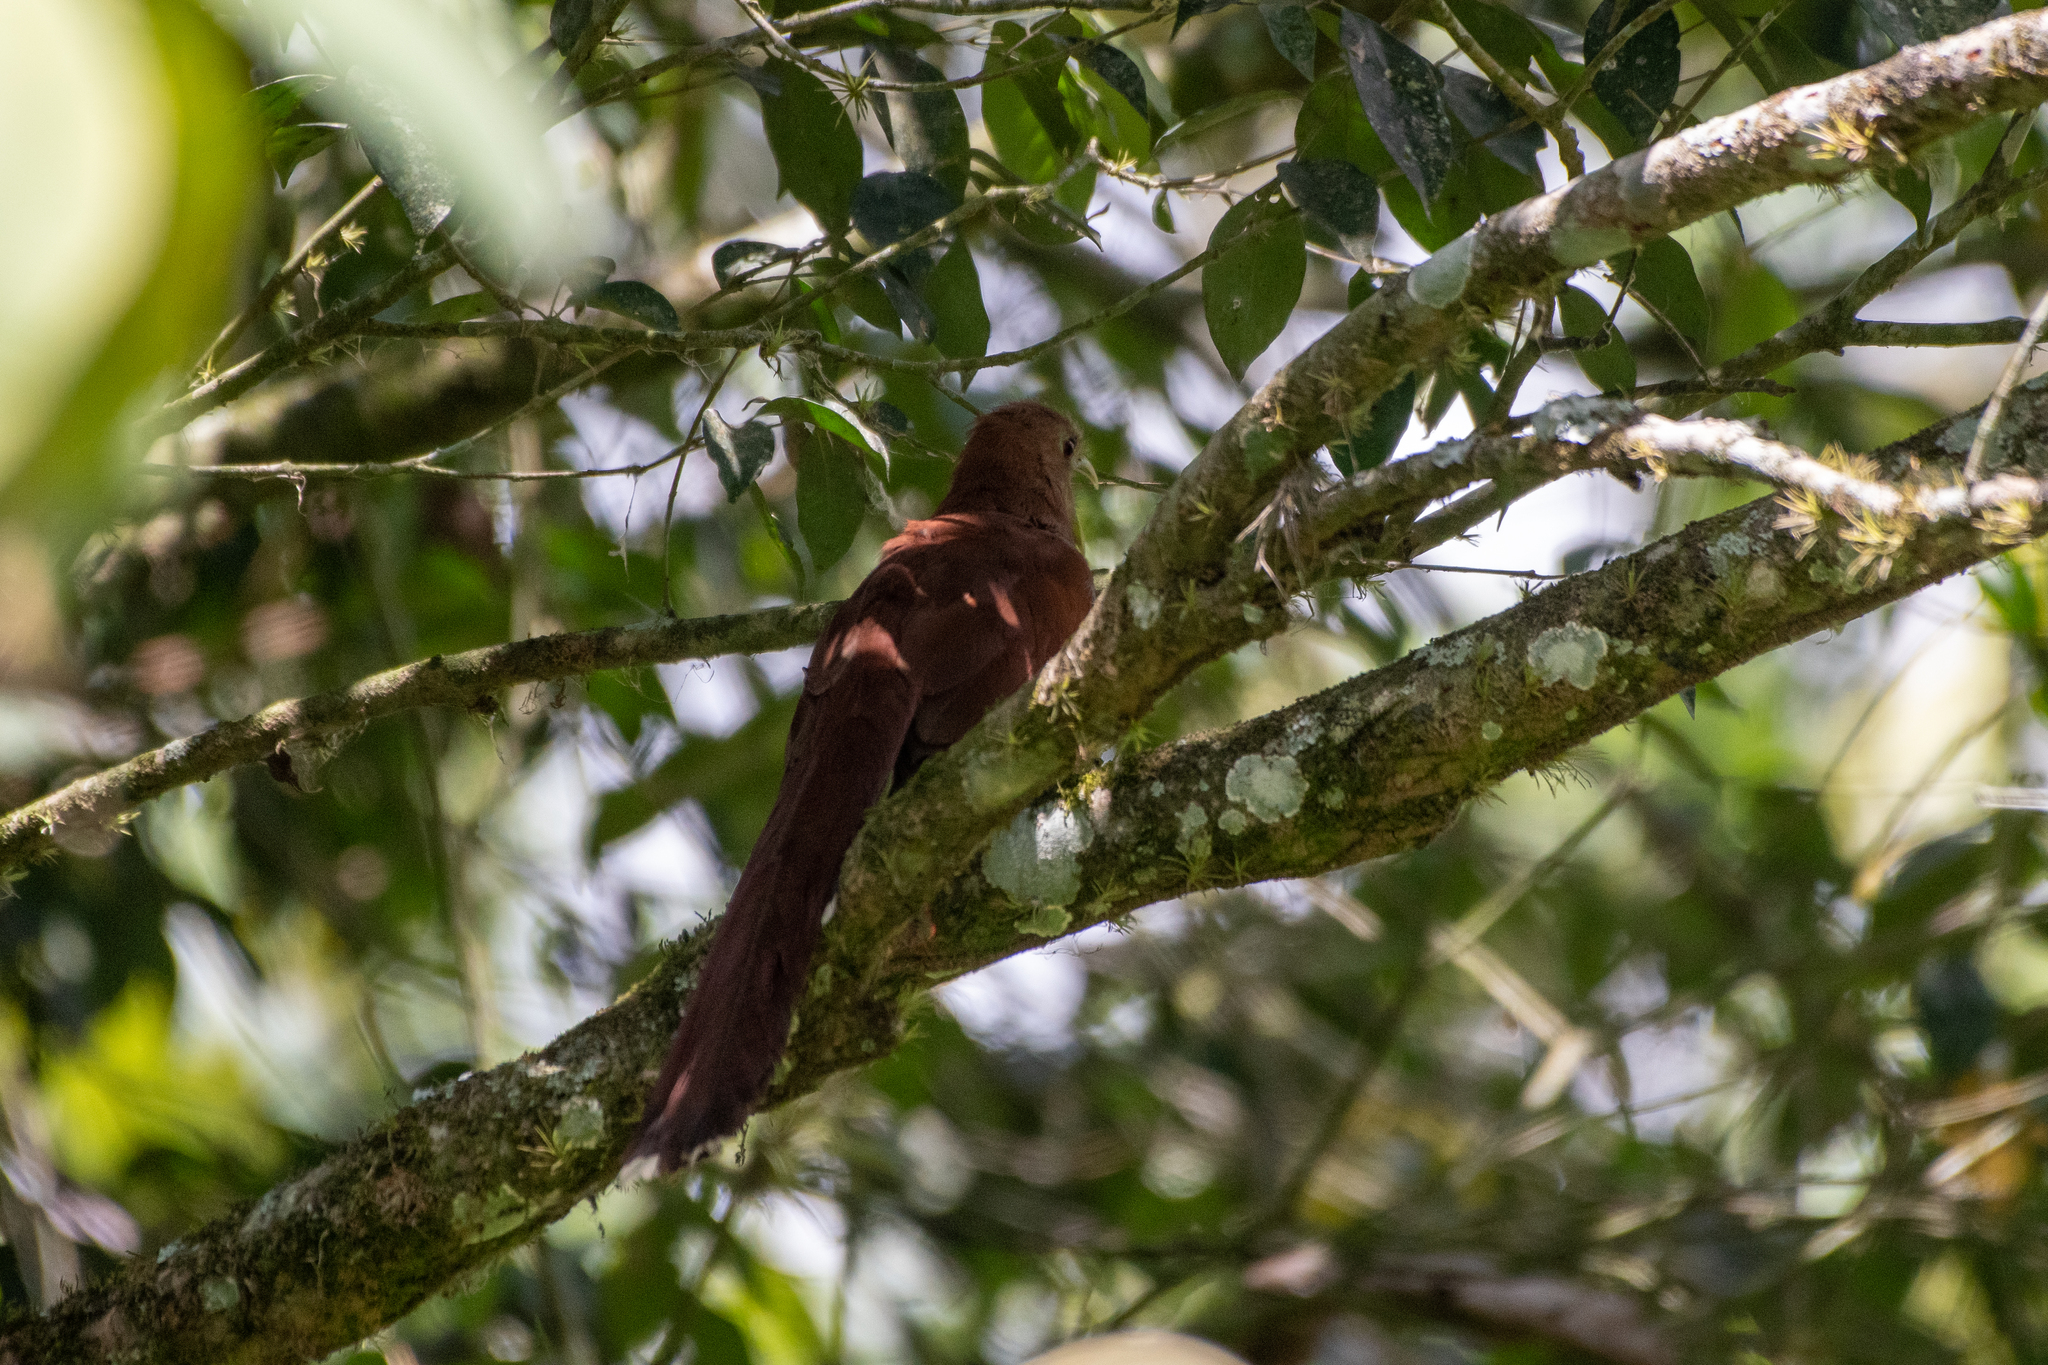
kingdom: Animalia
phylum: Chordata
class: Aves
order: Cuculiformes
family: Cuculidae
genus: Piaya
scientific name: Piaya cayana
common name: Squirrel cuckoo
